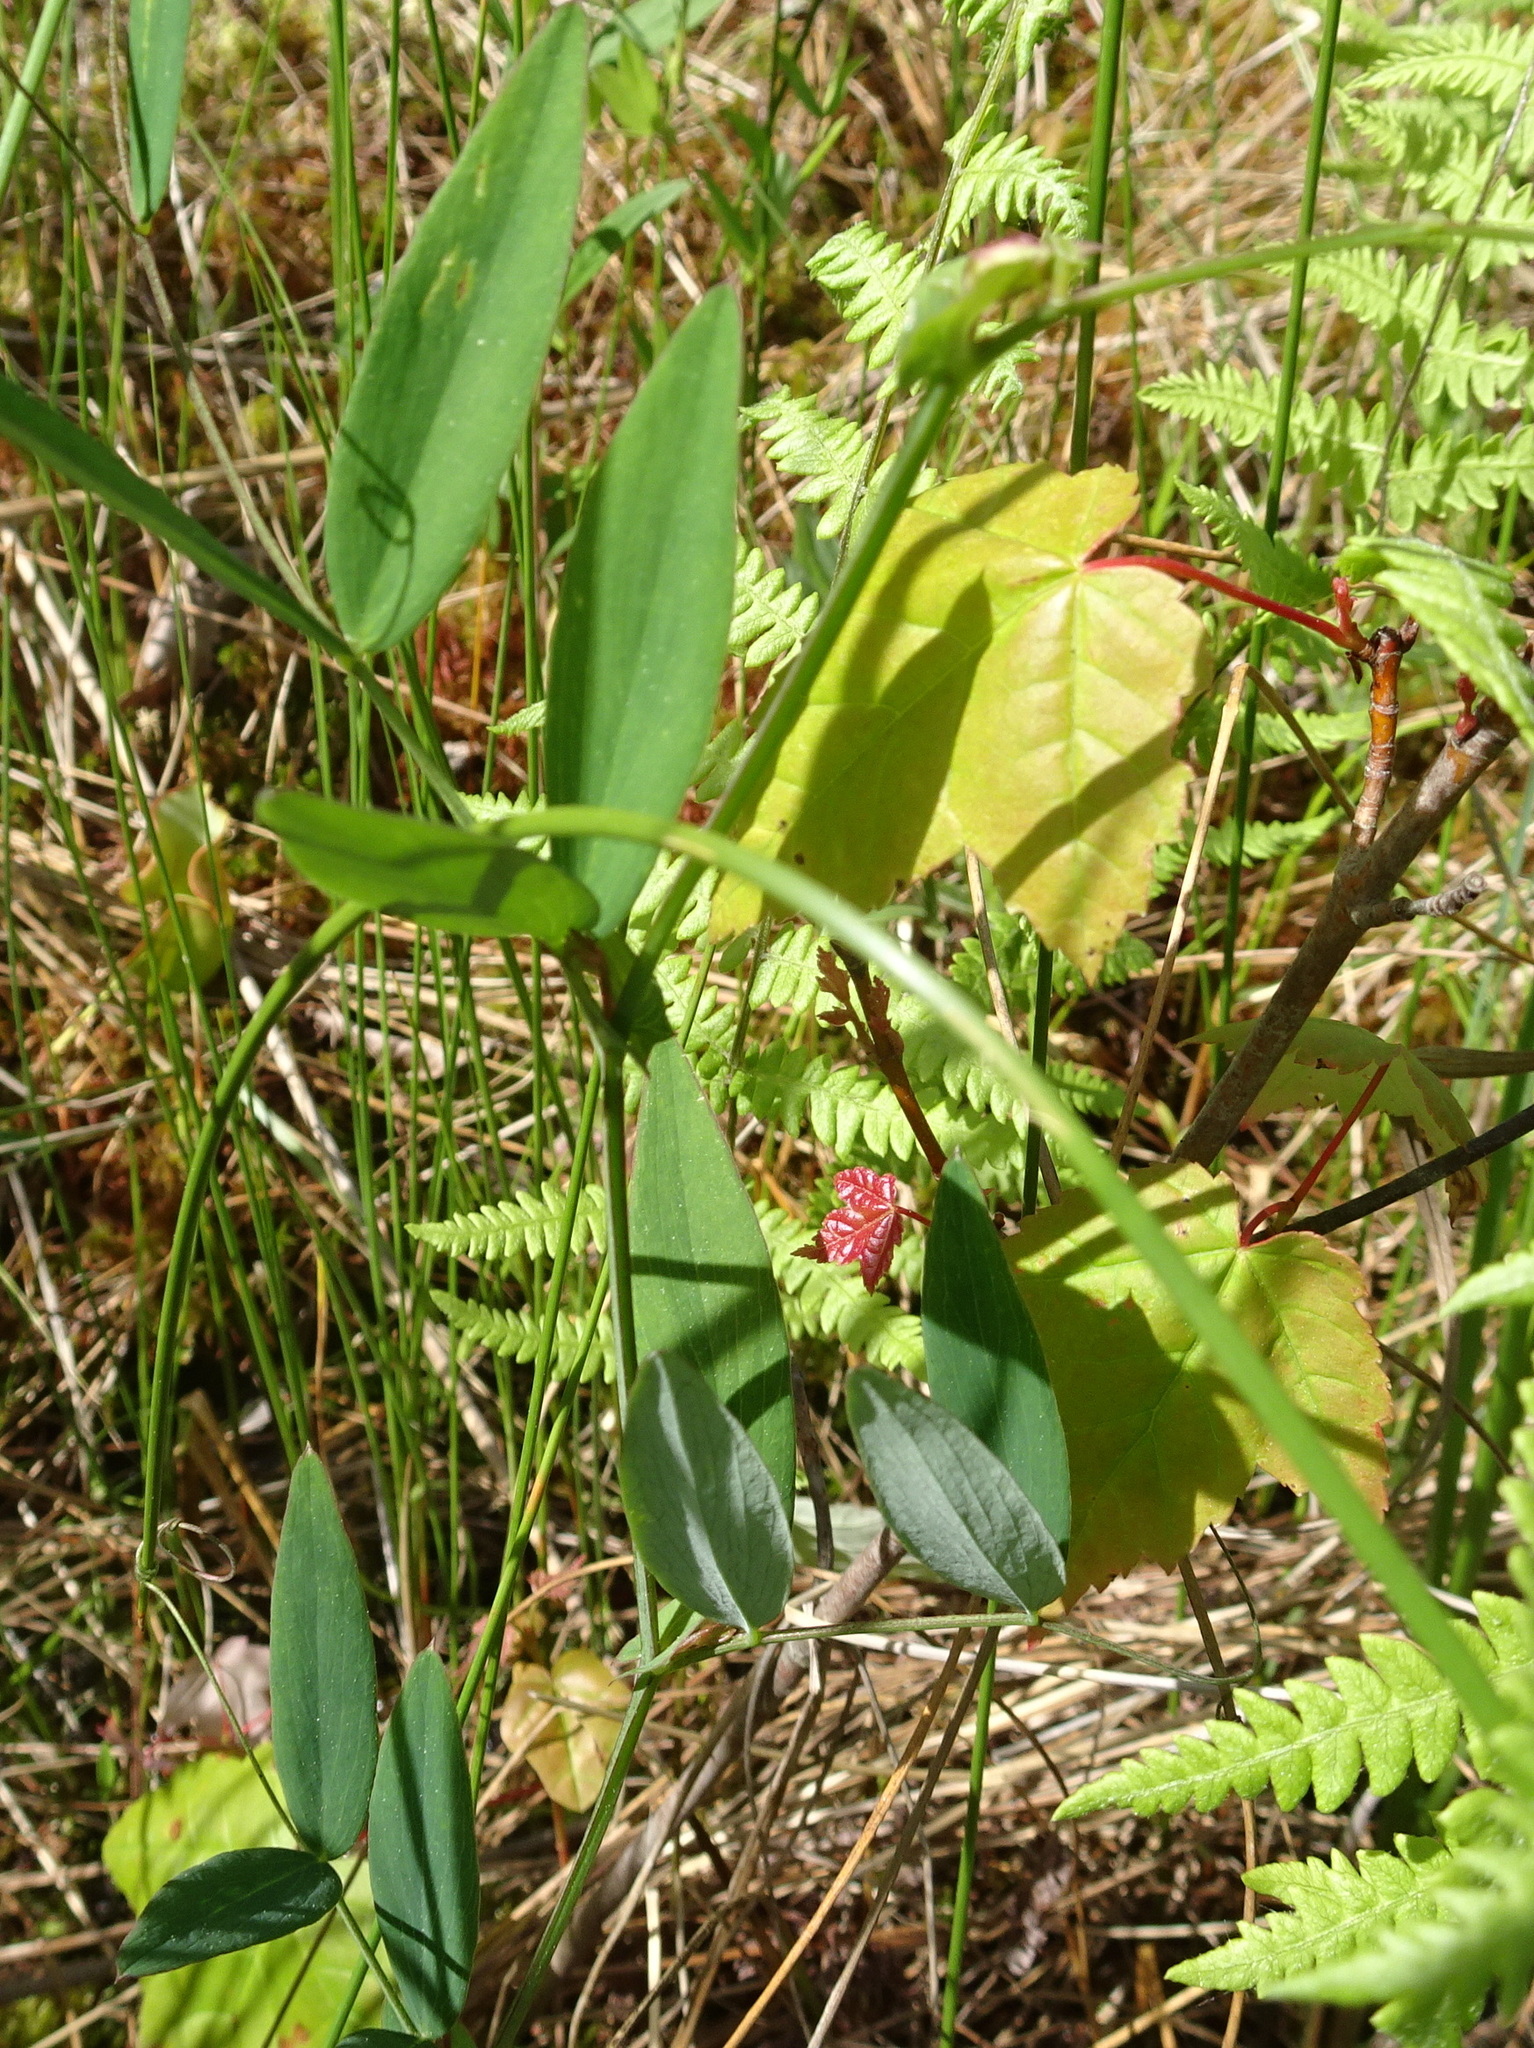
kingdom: Plantae
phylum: Tracheophyta
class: Magnoliopsida
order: Fabales
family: Fabaceae
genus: Lathyrus
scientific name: Lathyrus palustris
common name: Marsh pea
